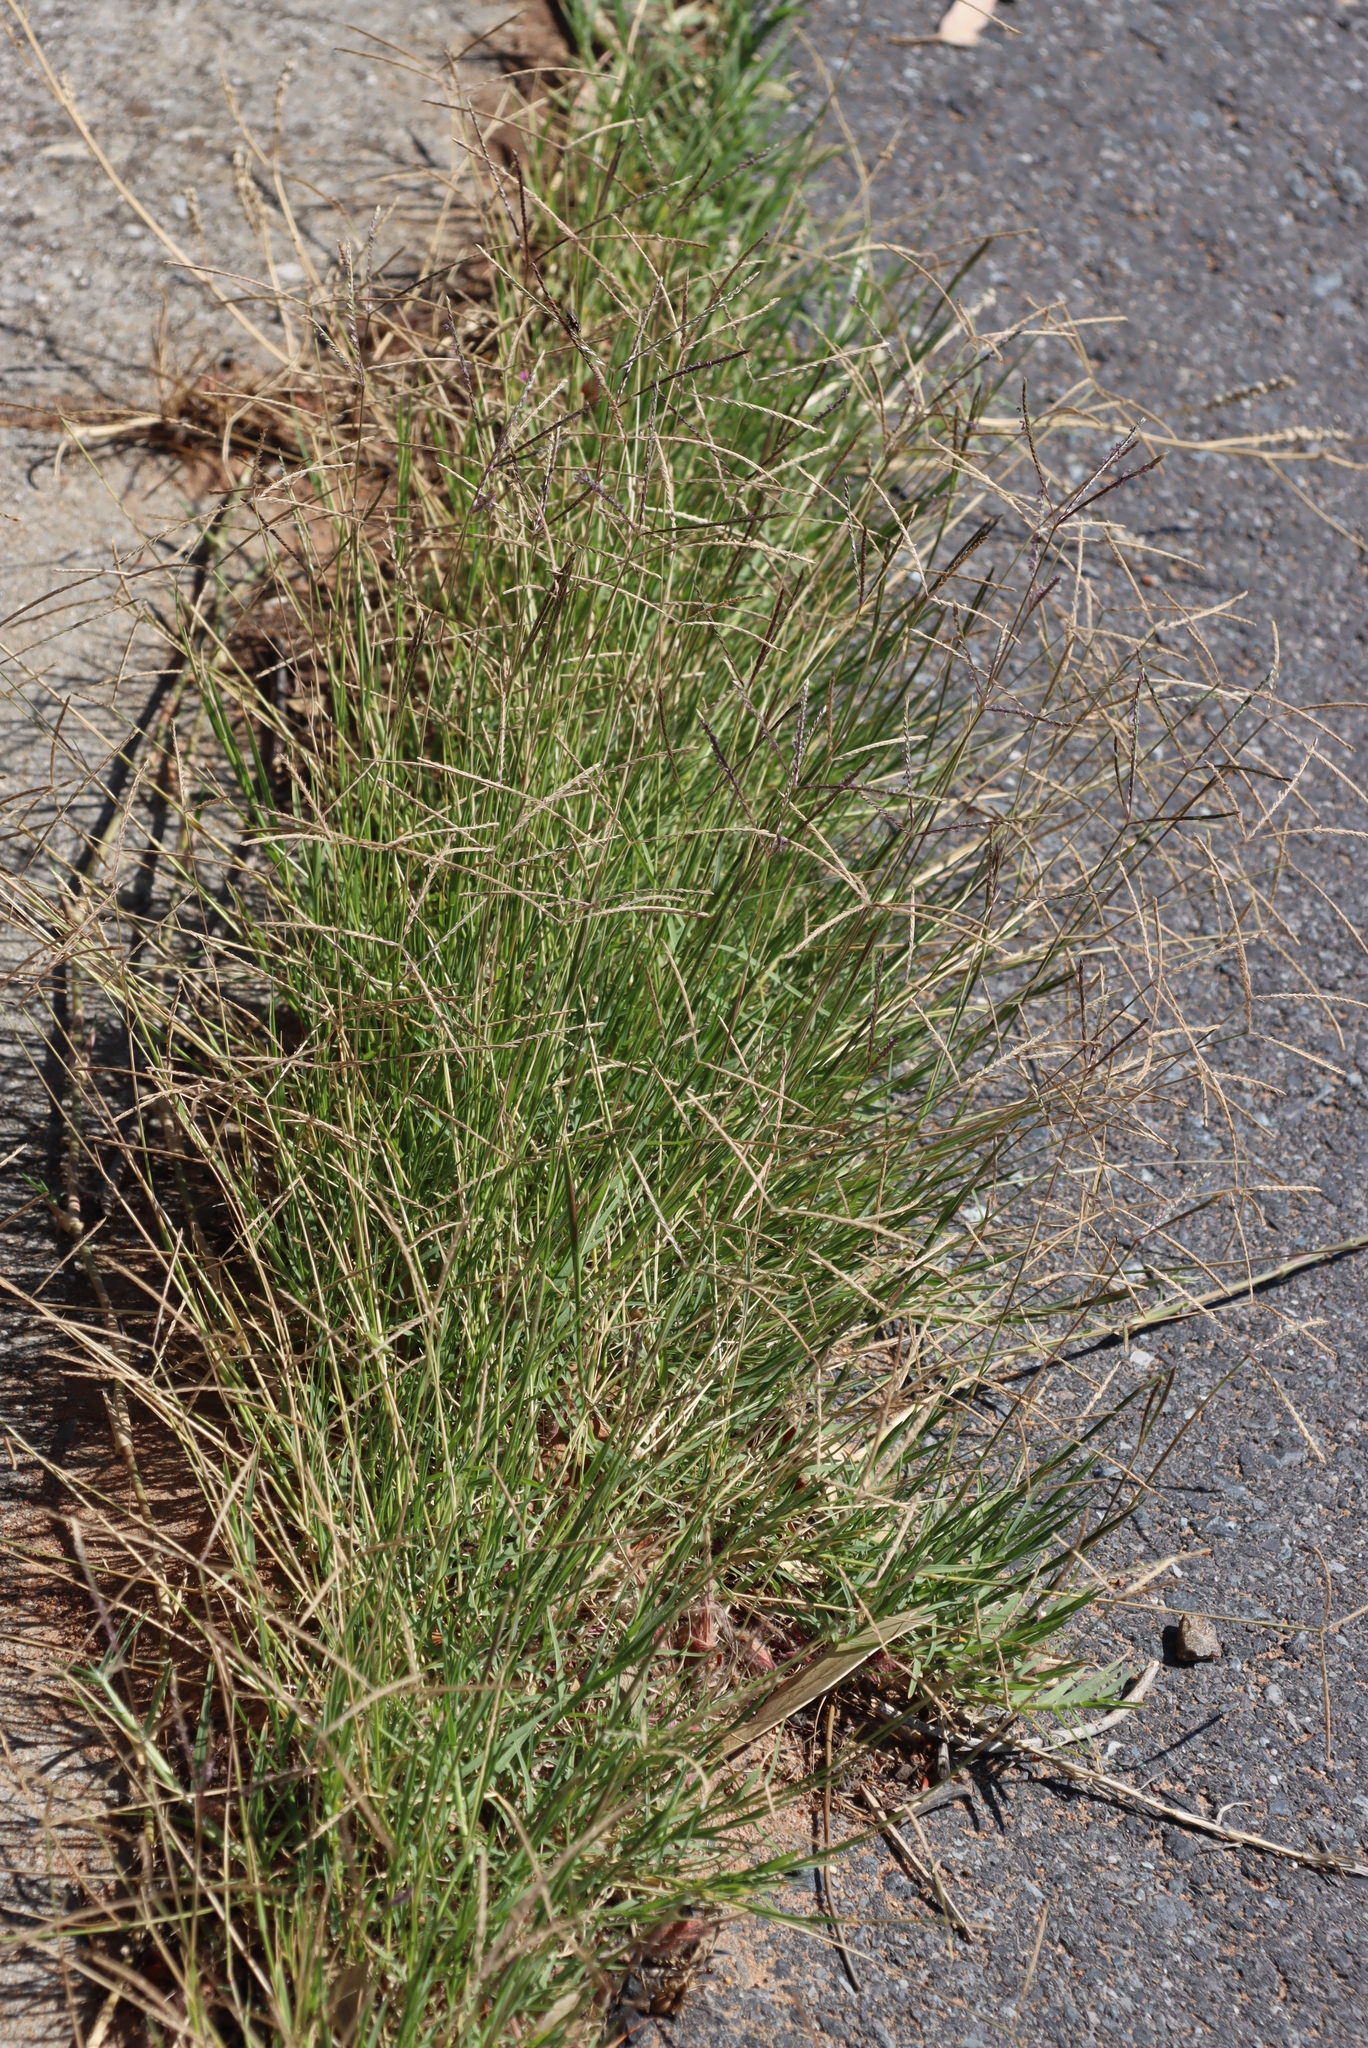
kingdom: Plantae
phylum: Tracheophyta
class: Liliopsida
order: Poales
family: Poaceae
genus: Cynodon
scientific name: Cynodon dactylon
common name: Bermuda grass
